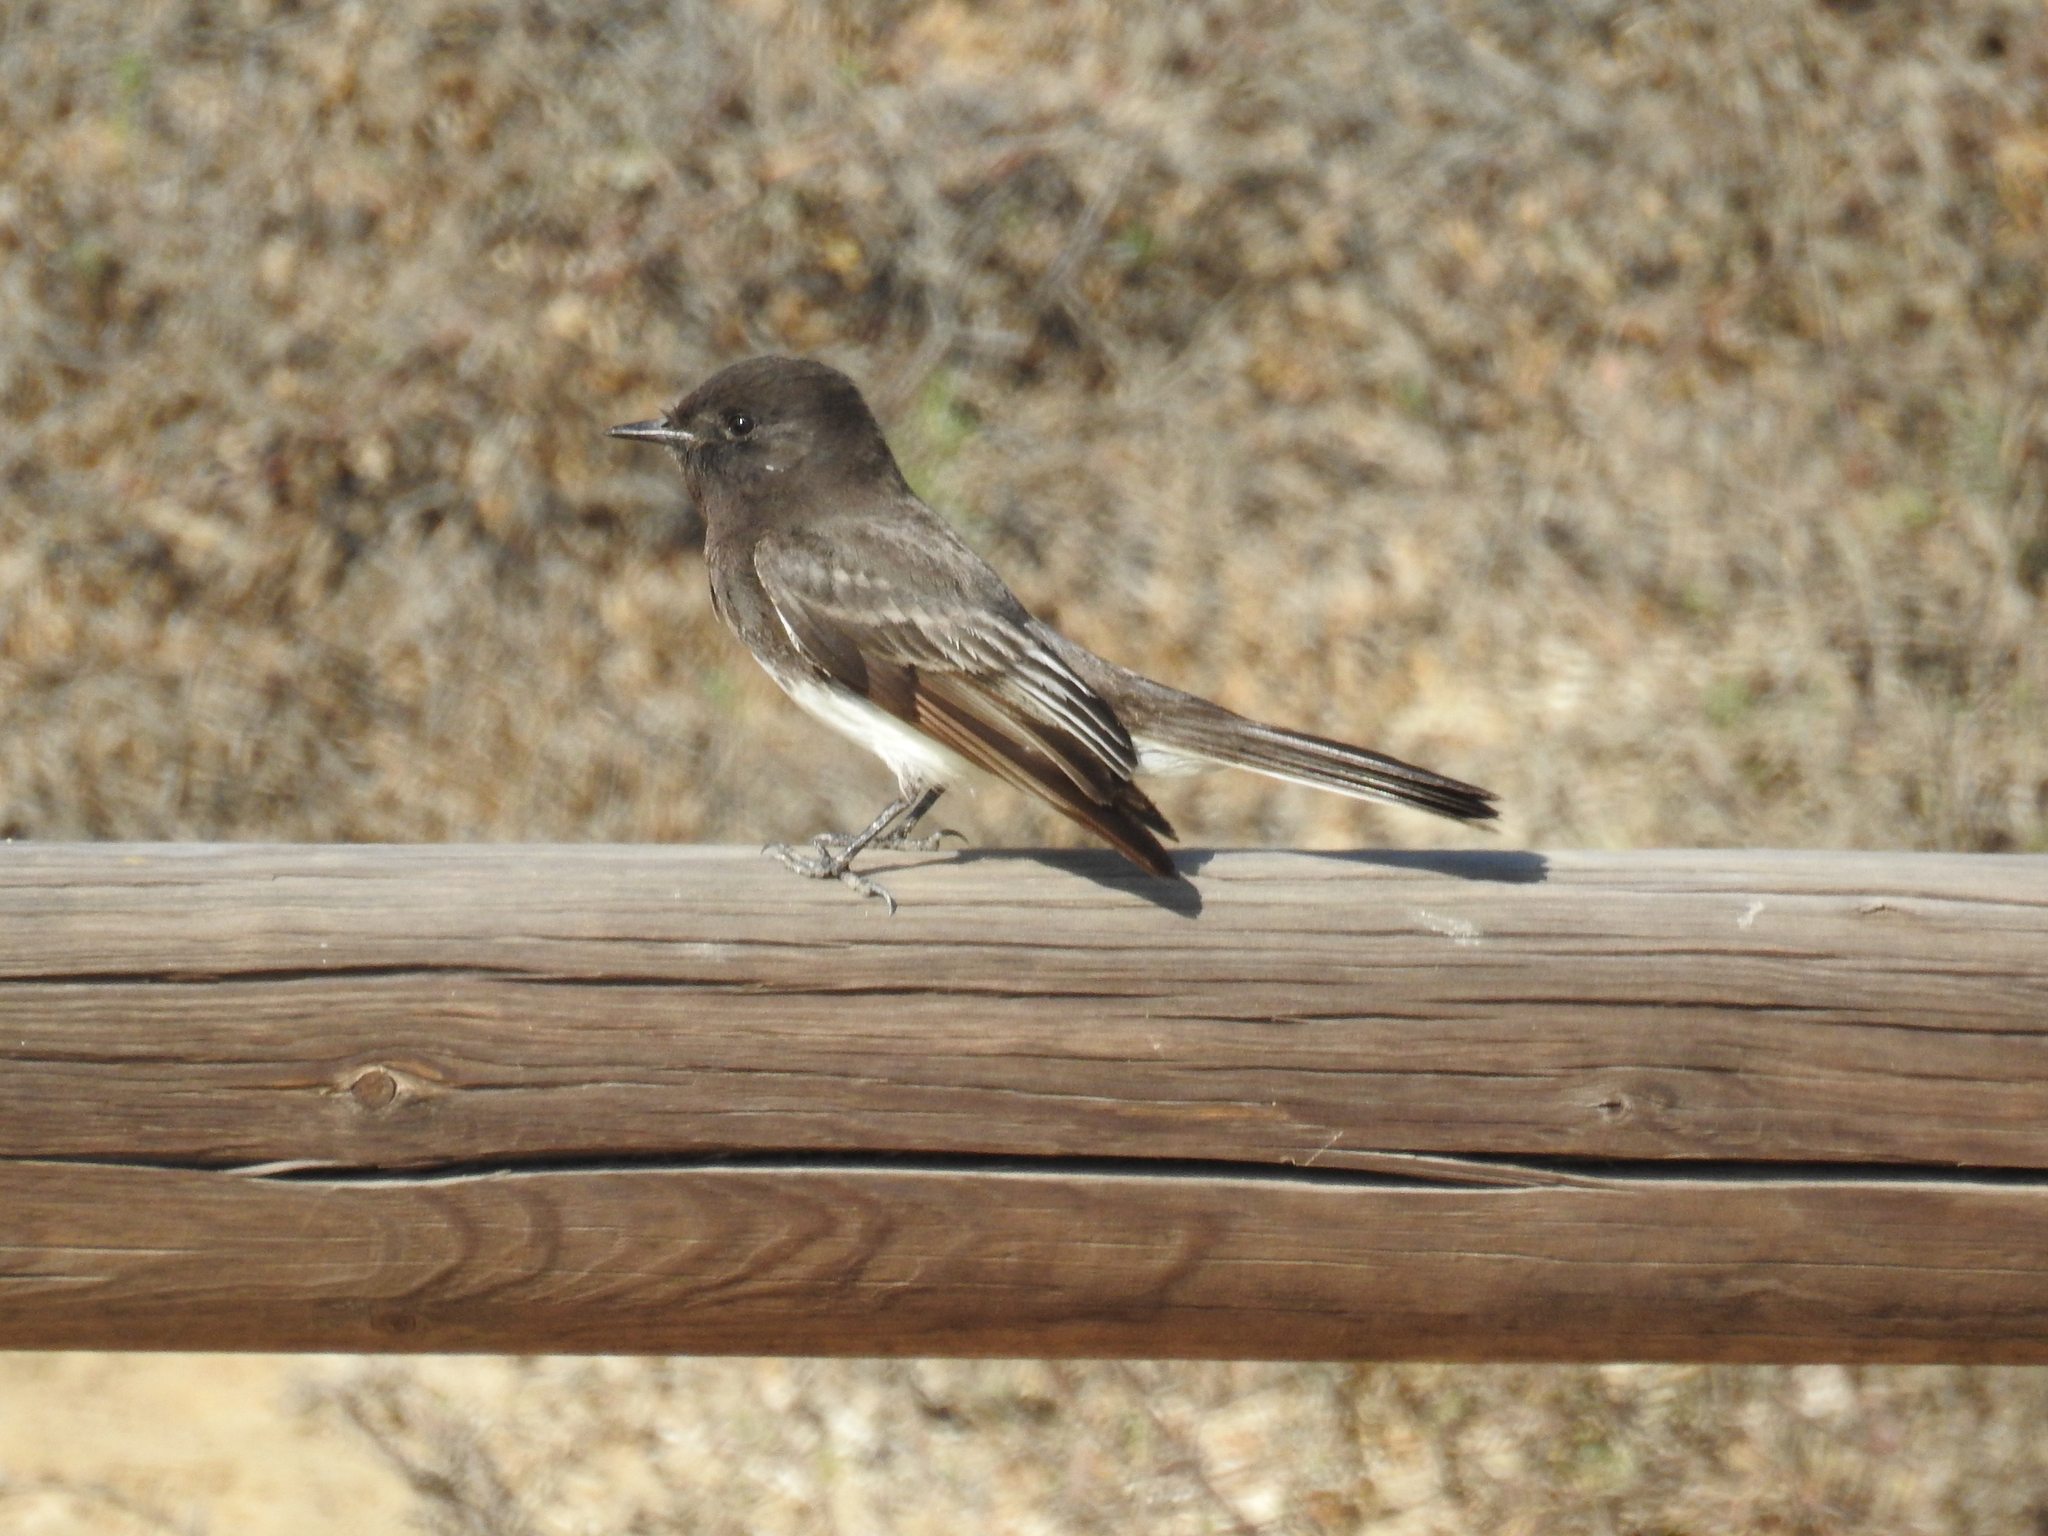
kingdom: Animalia
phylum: Chordata
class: Aves
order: Passeriformes
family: Tyrannidae
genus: Sayornis
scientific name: Sayornis nigricans
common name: Black phoebe
